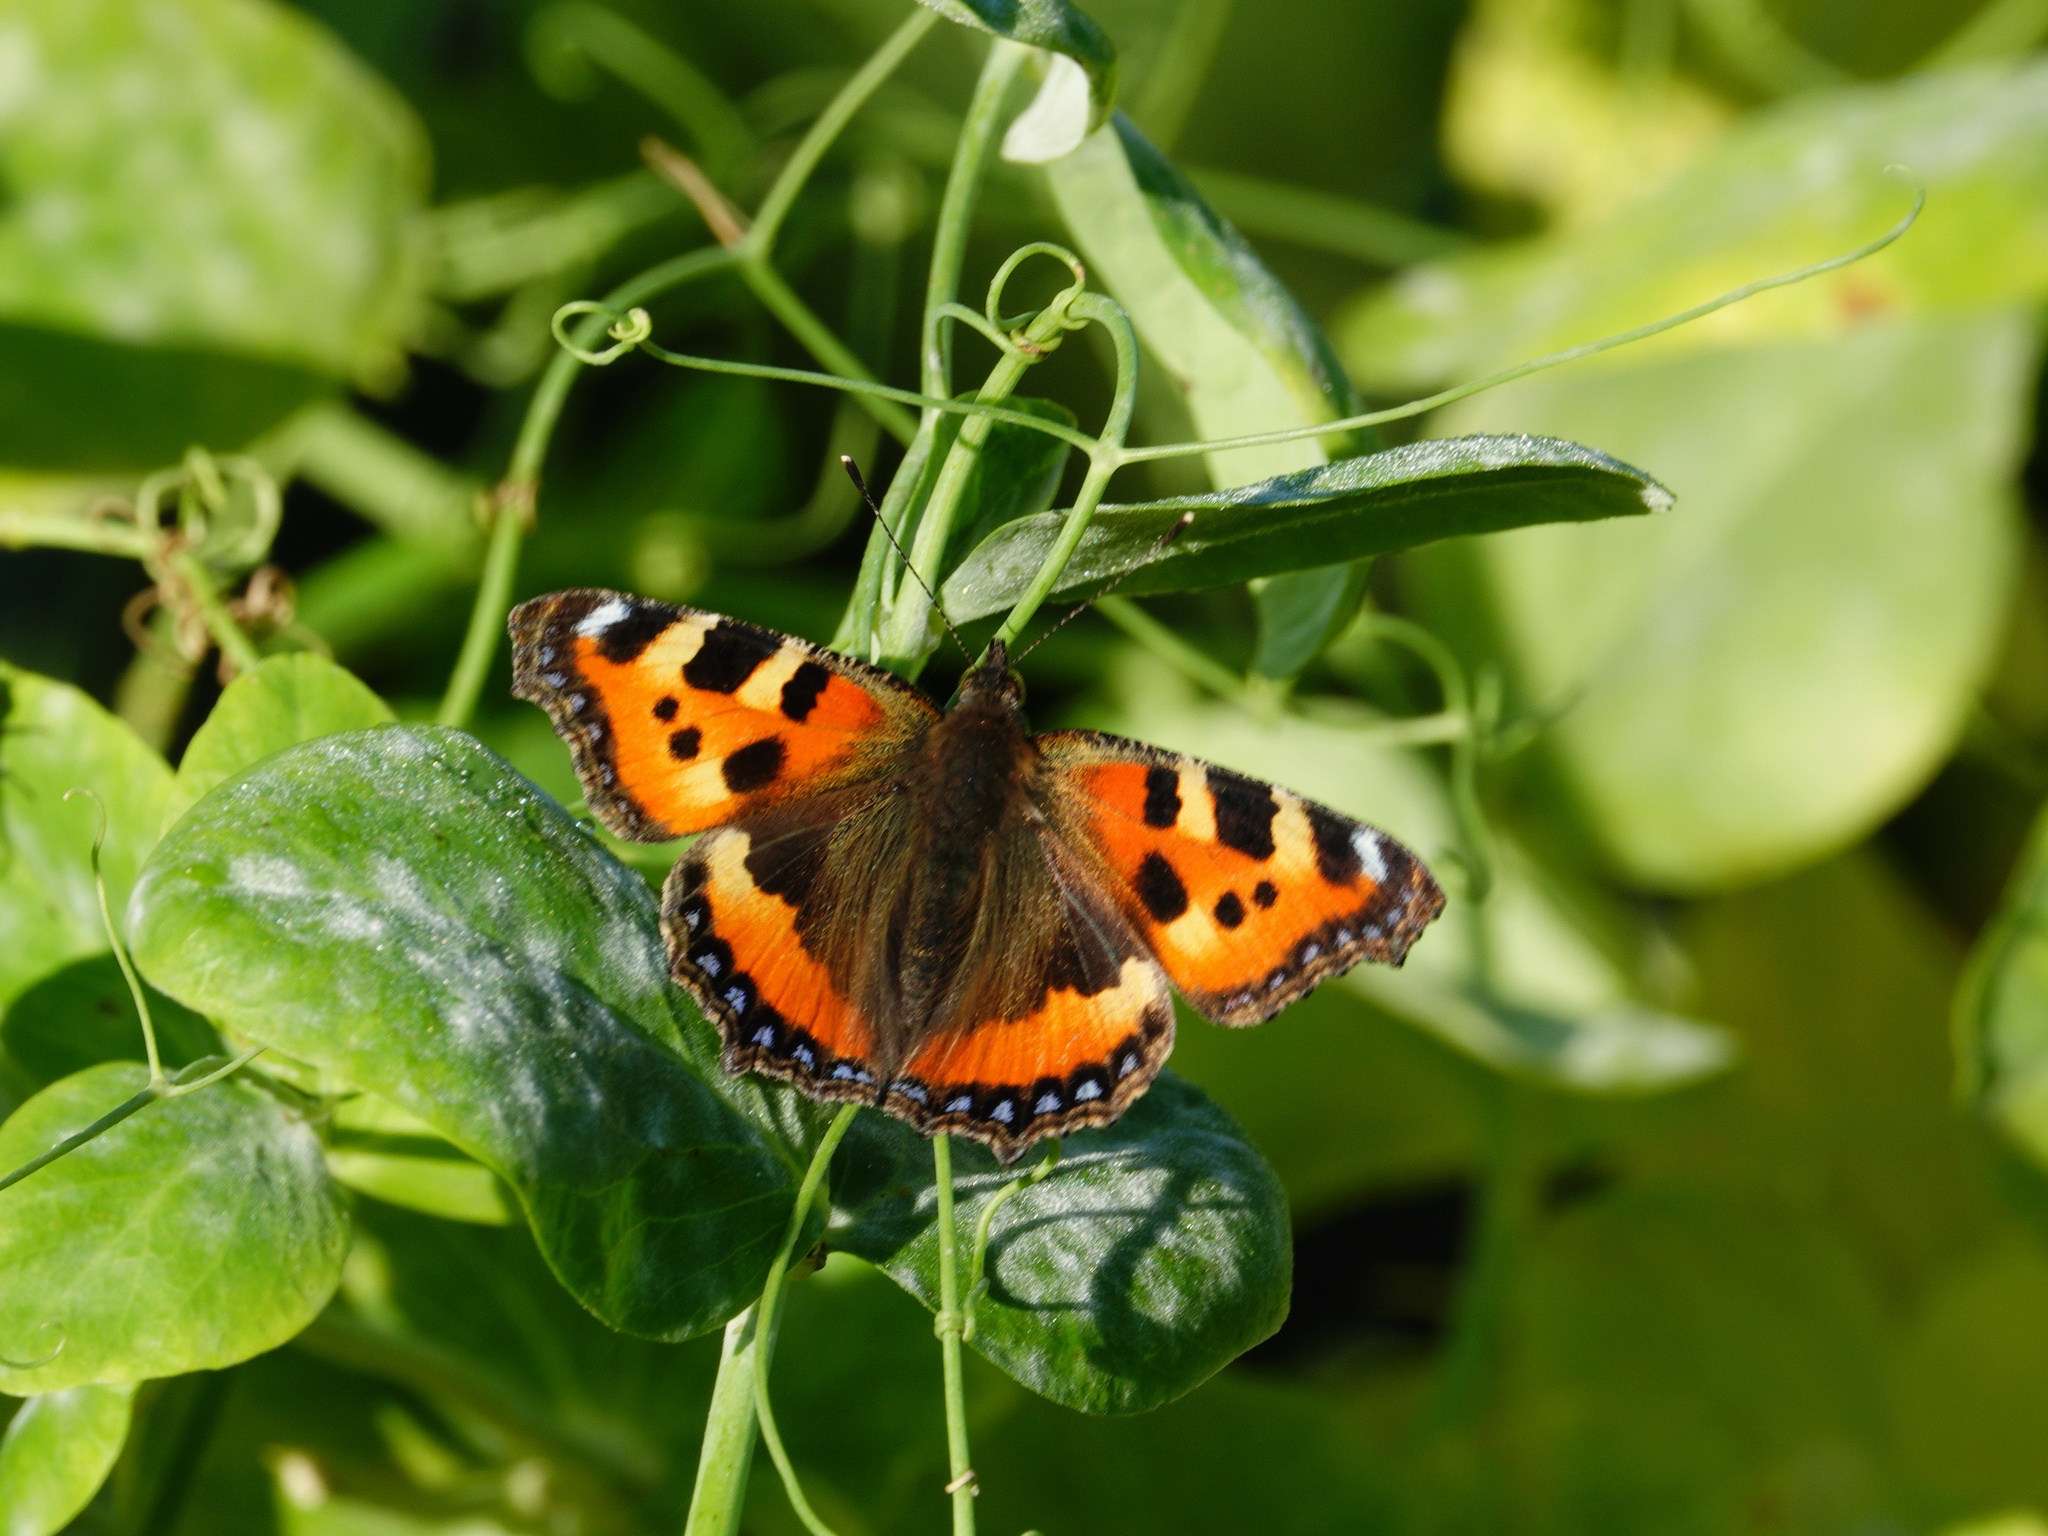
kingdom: Animalia
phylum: Arthropoda
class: Insecta
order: Lepidoptera
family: Nymphalidae
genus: Aglais
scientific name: Aglais urticae
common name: Small tortoiseshell
